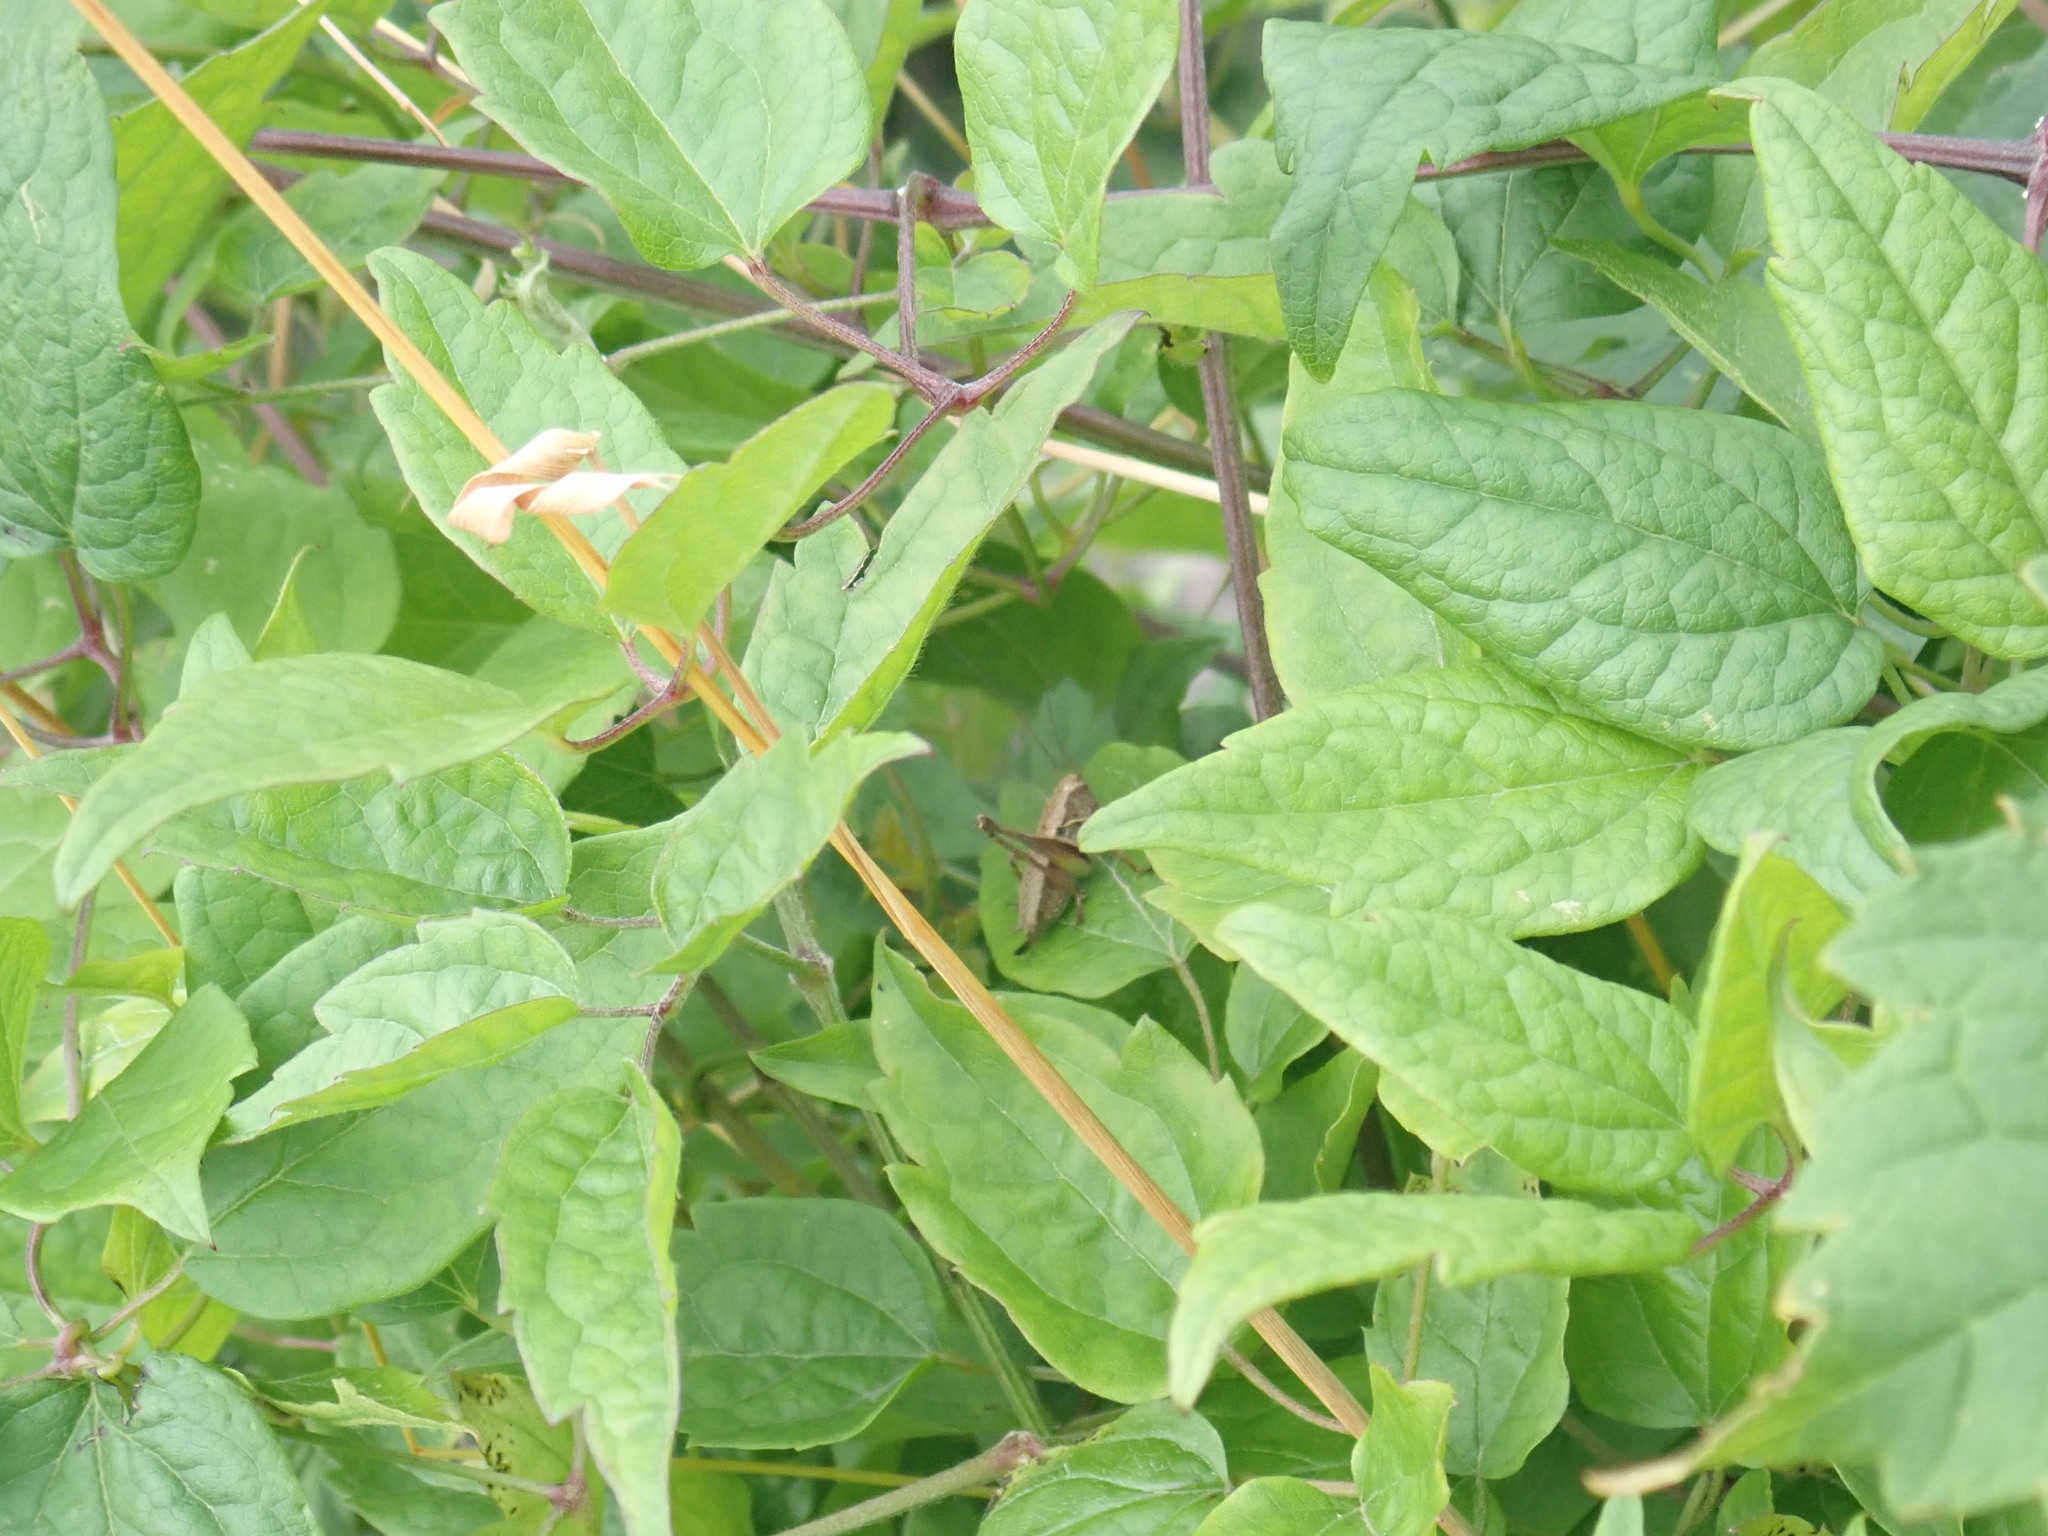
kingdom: Animalia
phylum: Arthropoda
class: Insecta
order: Orthoptera
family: Tettigoniidae
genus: Pholidoptera
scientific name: Pholidoptera griseoaptera
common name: Dark bush-cricket
